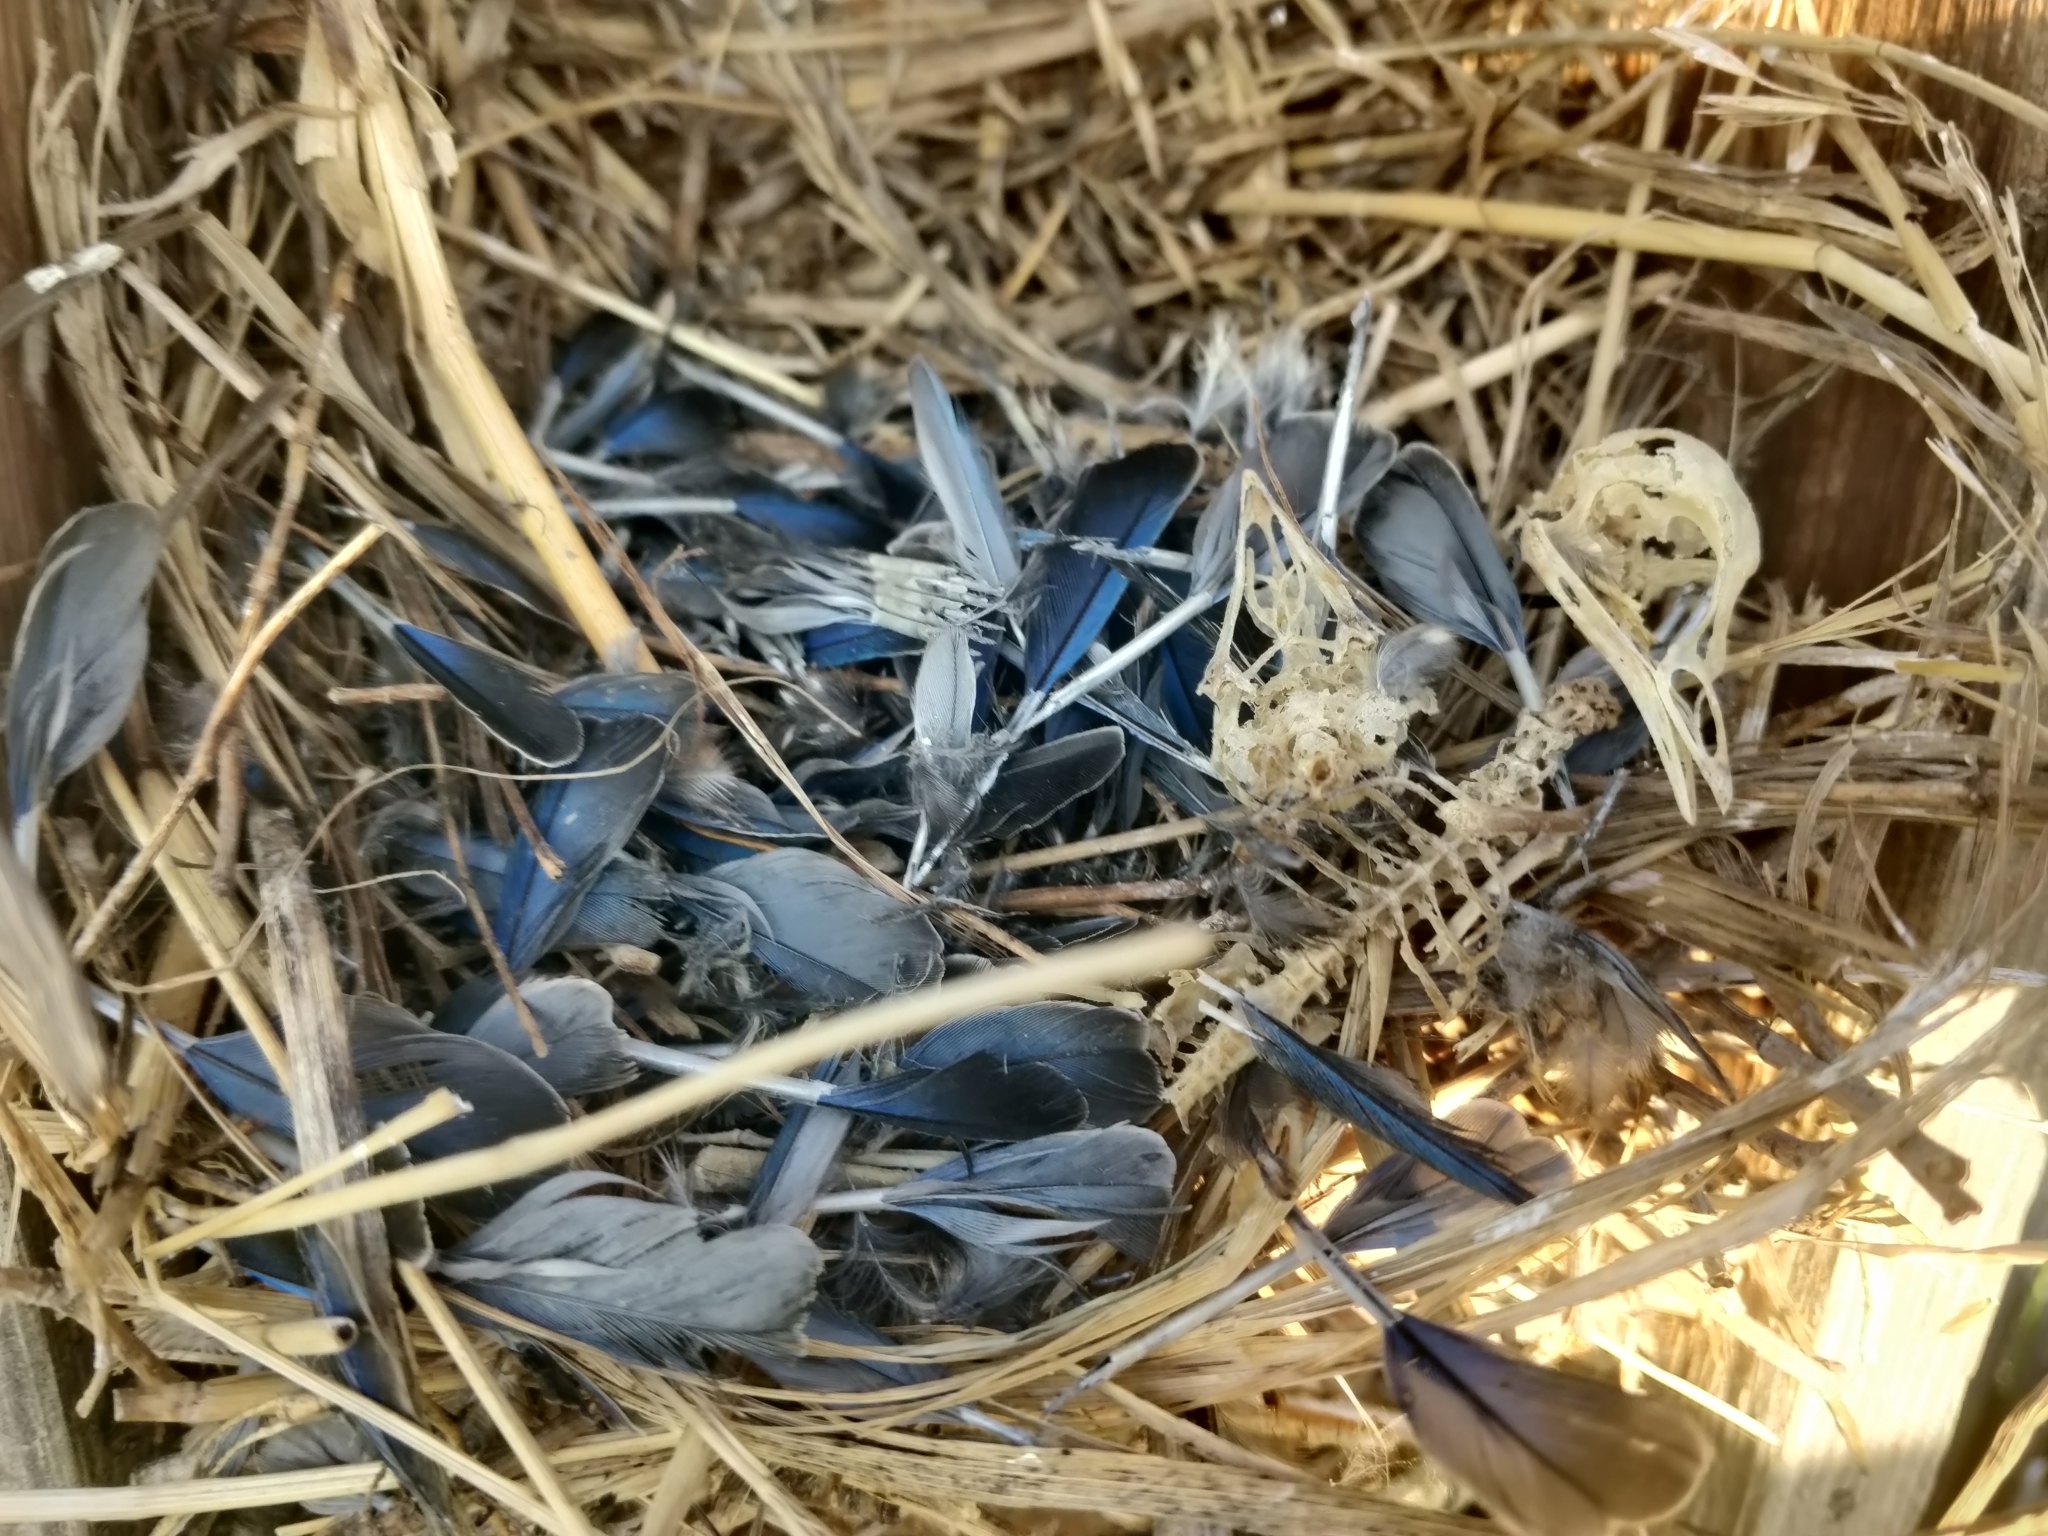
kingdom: Animalia
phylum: Chordata
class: Aves
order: Passeriformes
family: Turdidae
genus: Sialia
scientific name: Sialia sialis
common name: Eastern bluebird
